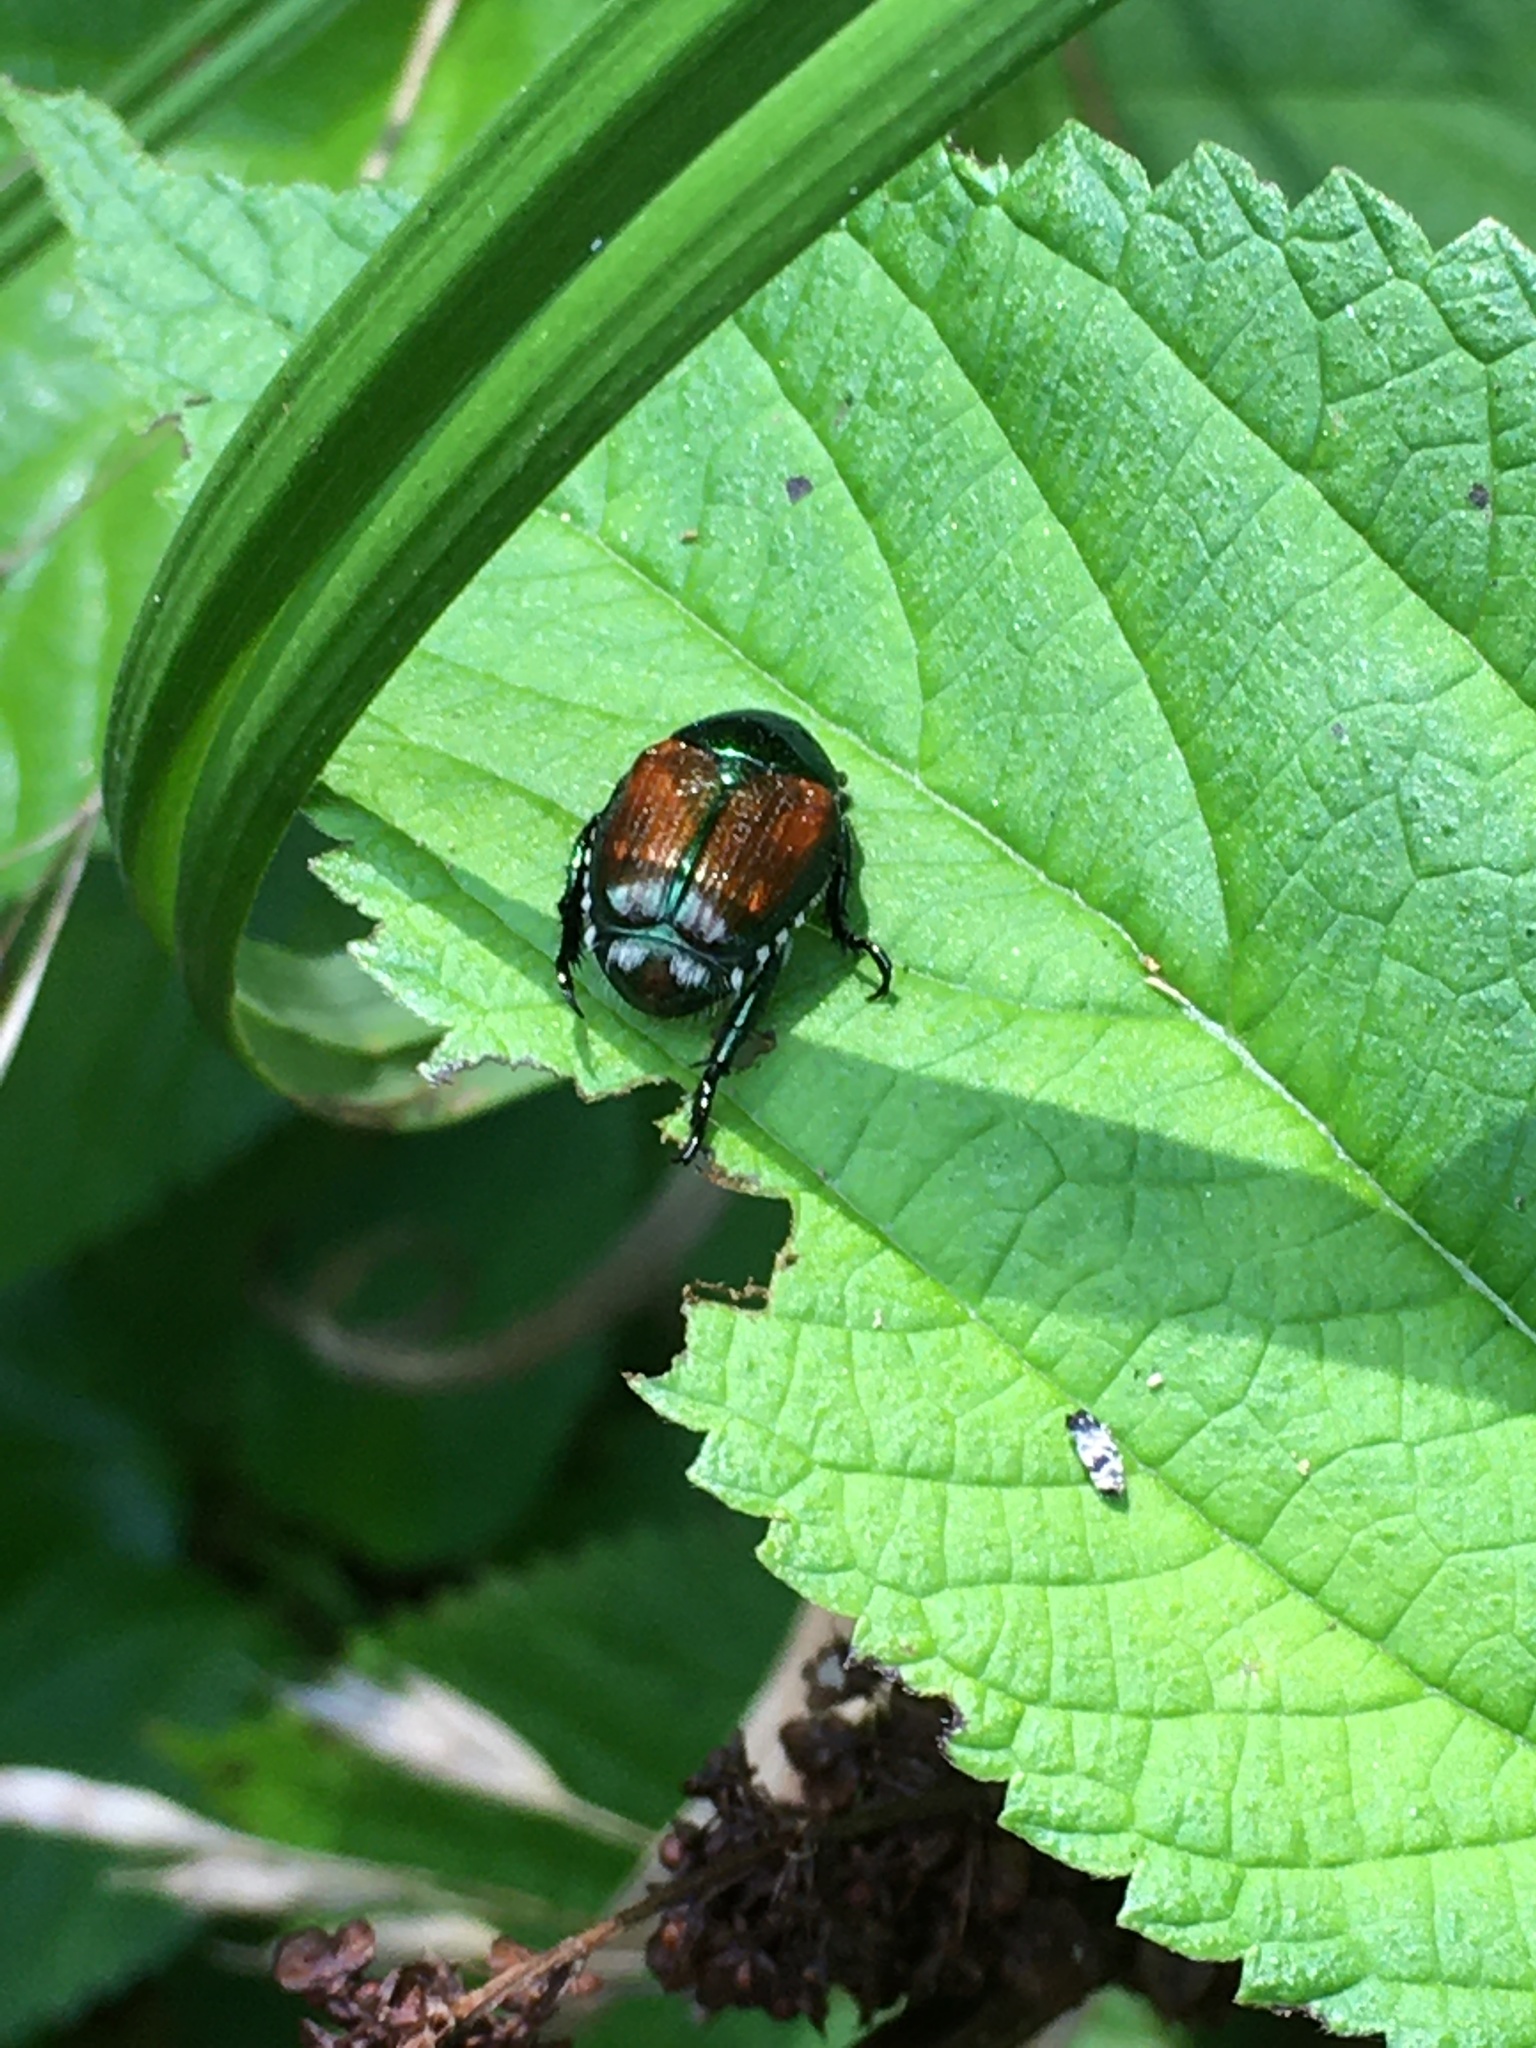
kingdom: Animalia
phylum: Arthropoda
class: Insecta
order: Coleoptera
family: Scarabaeidae
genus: Popillia
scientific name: Popillia japonica
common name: Japanese beetle
